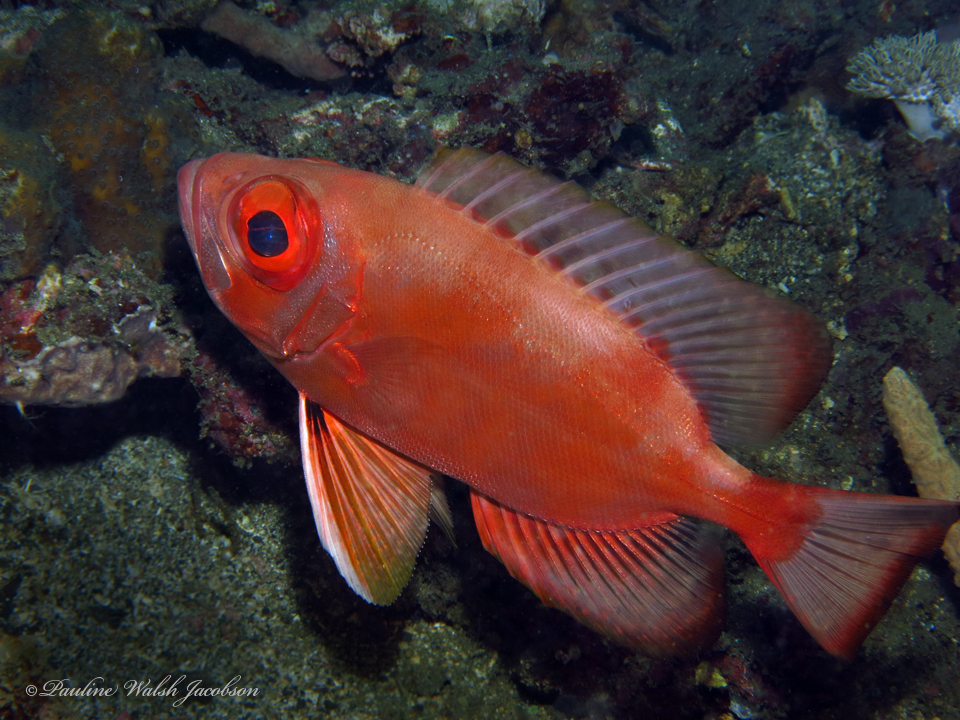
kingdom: Animalia
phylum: Chordata
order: Perciformes
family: Priacanthidae
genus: Priacanthus
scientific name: Priacanthus sagittarius
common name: Arrow bulleye
